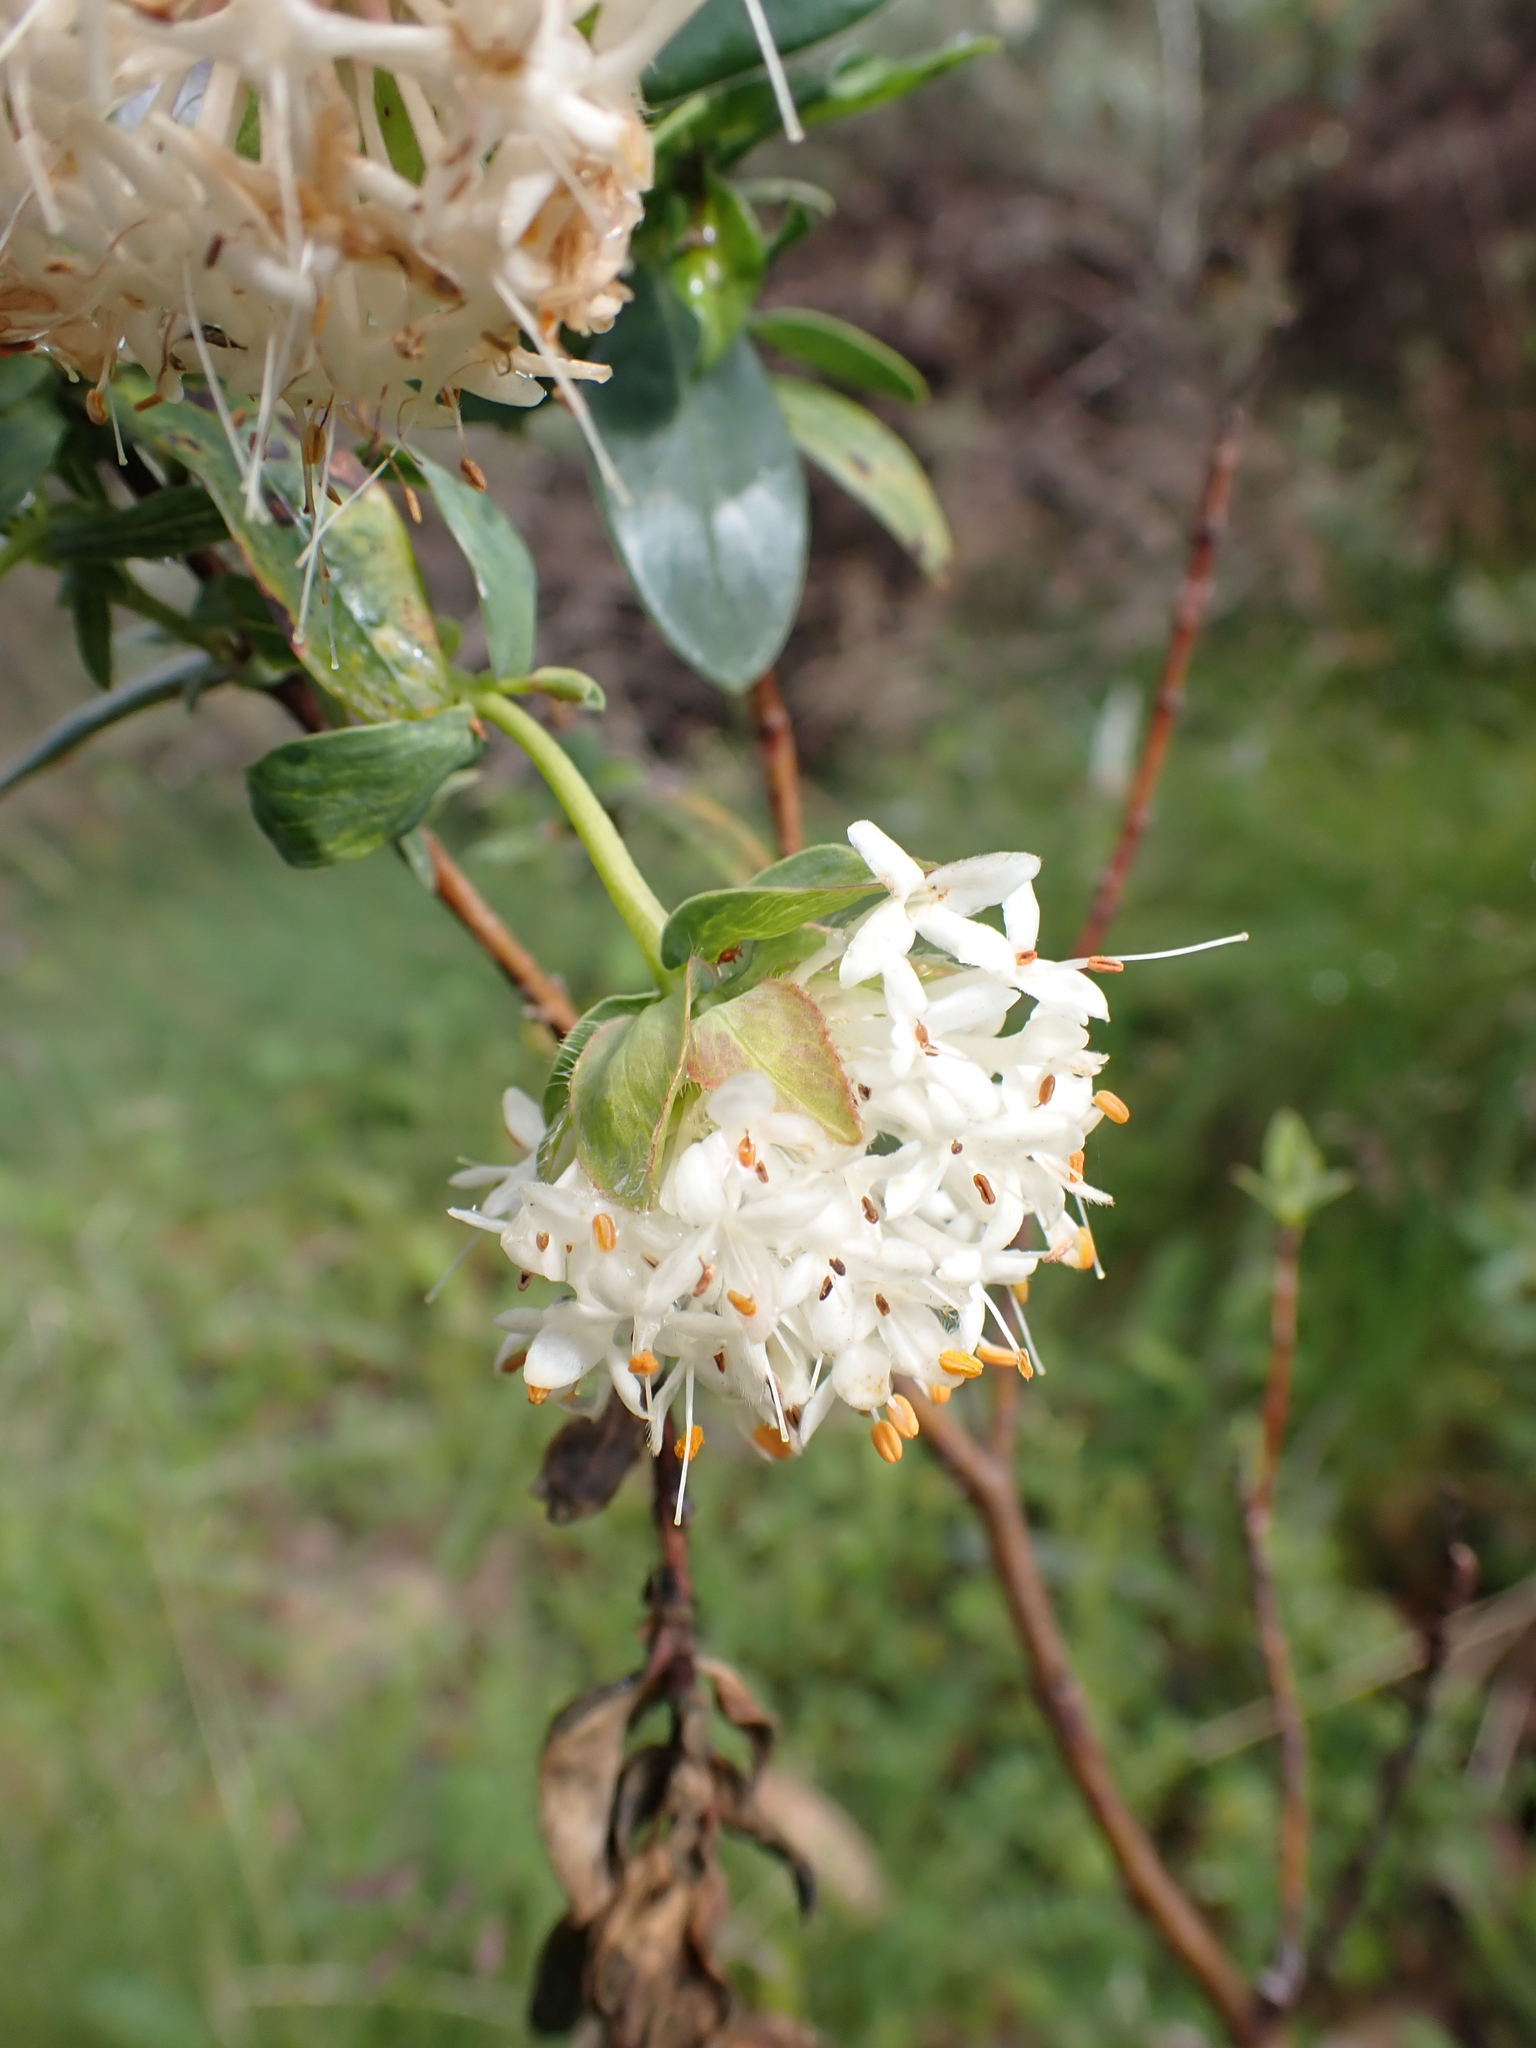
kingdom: Plantae
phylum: Tracheophyta
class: Magnoliopsida
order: Malvales
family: Thymelaeaceae
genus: Pimelea
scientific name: Pimelea ligustrina
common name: Tall riceflower
